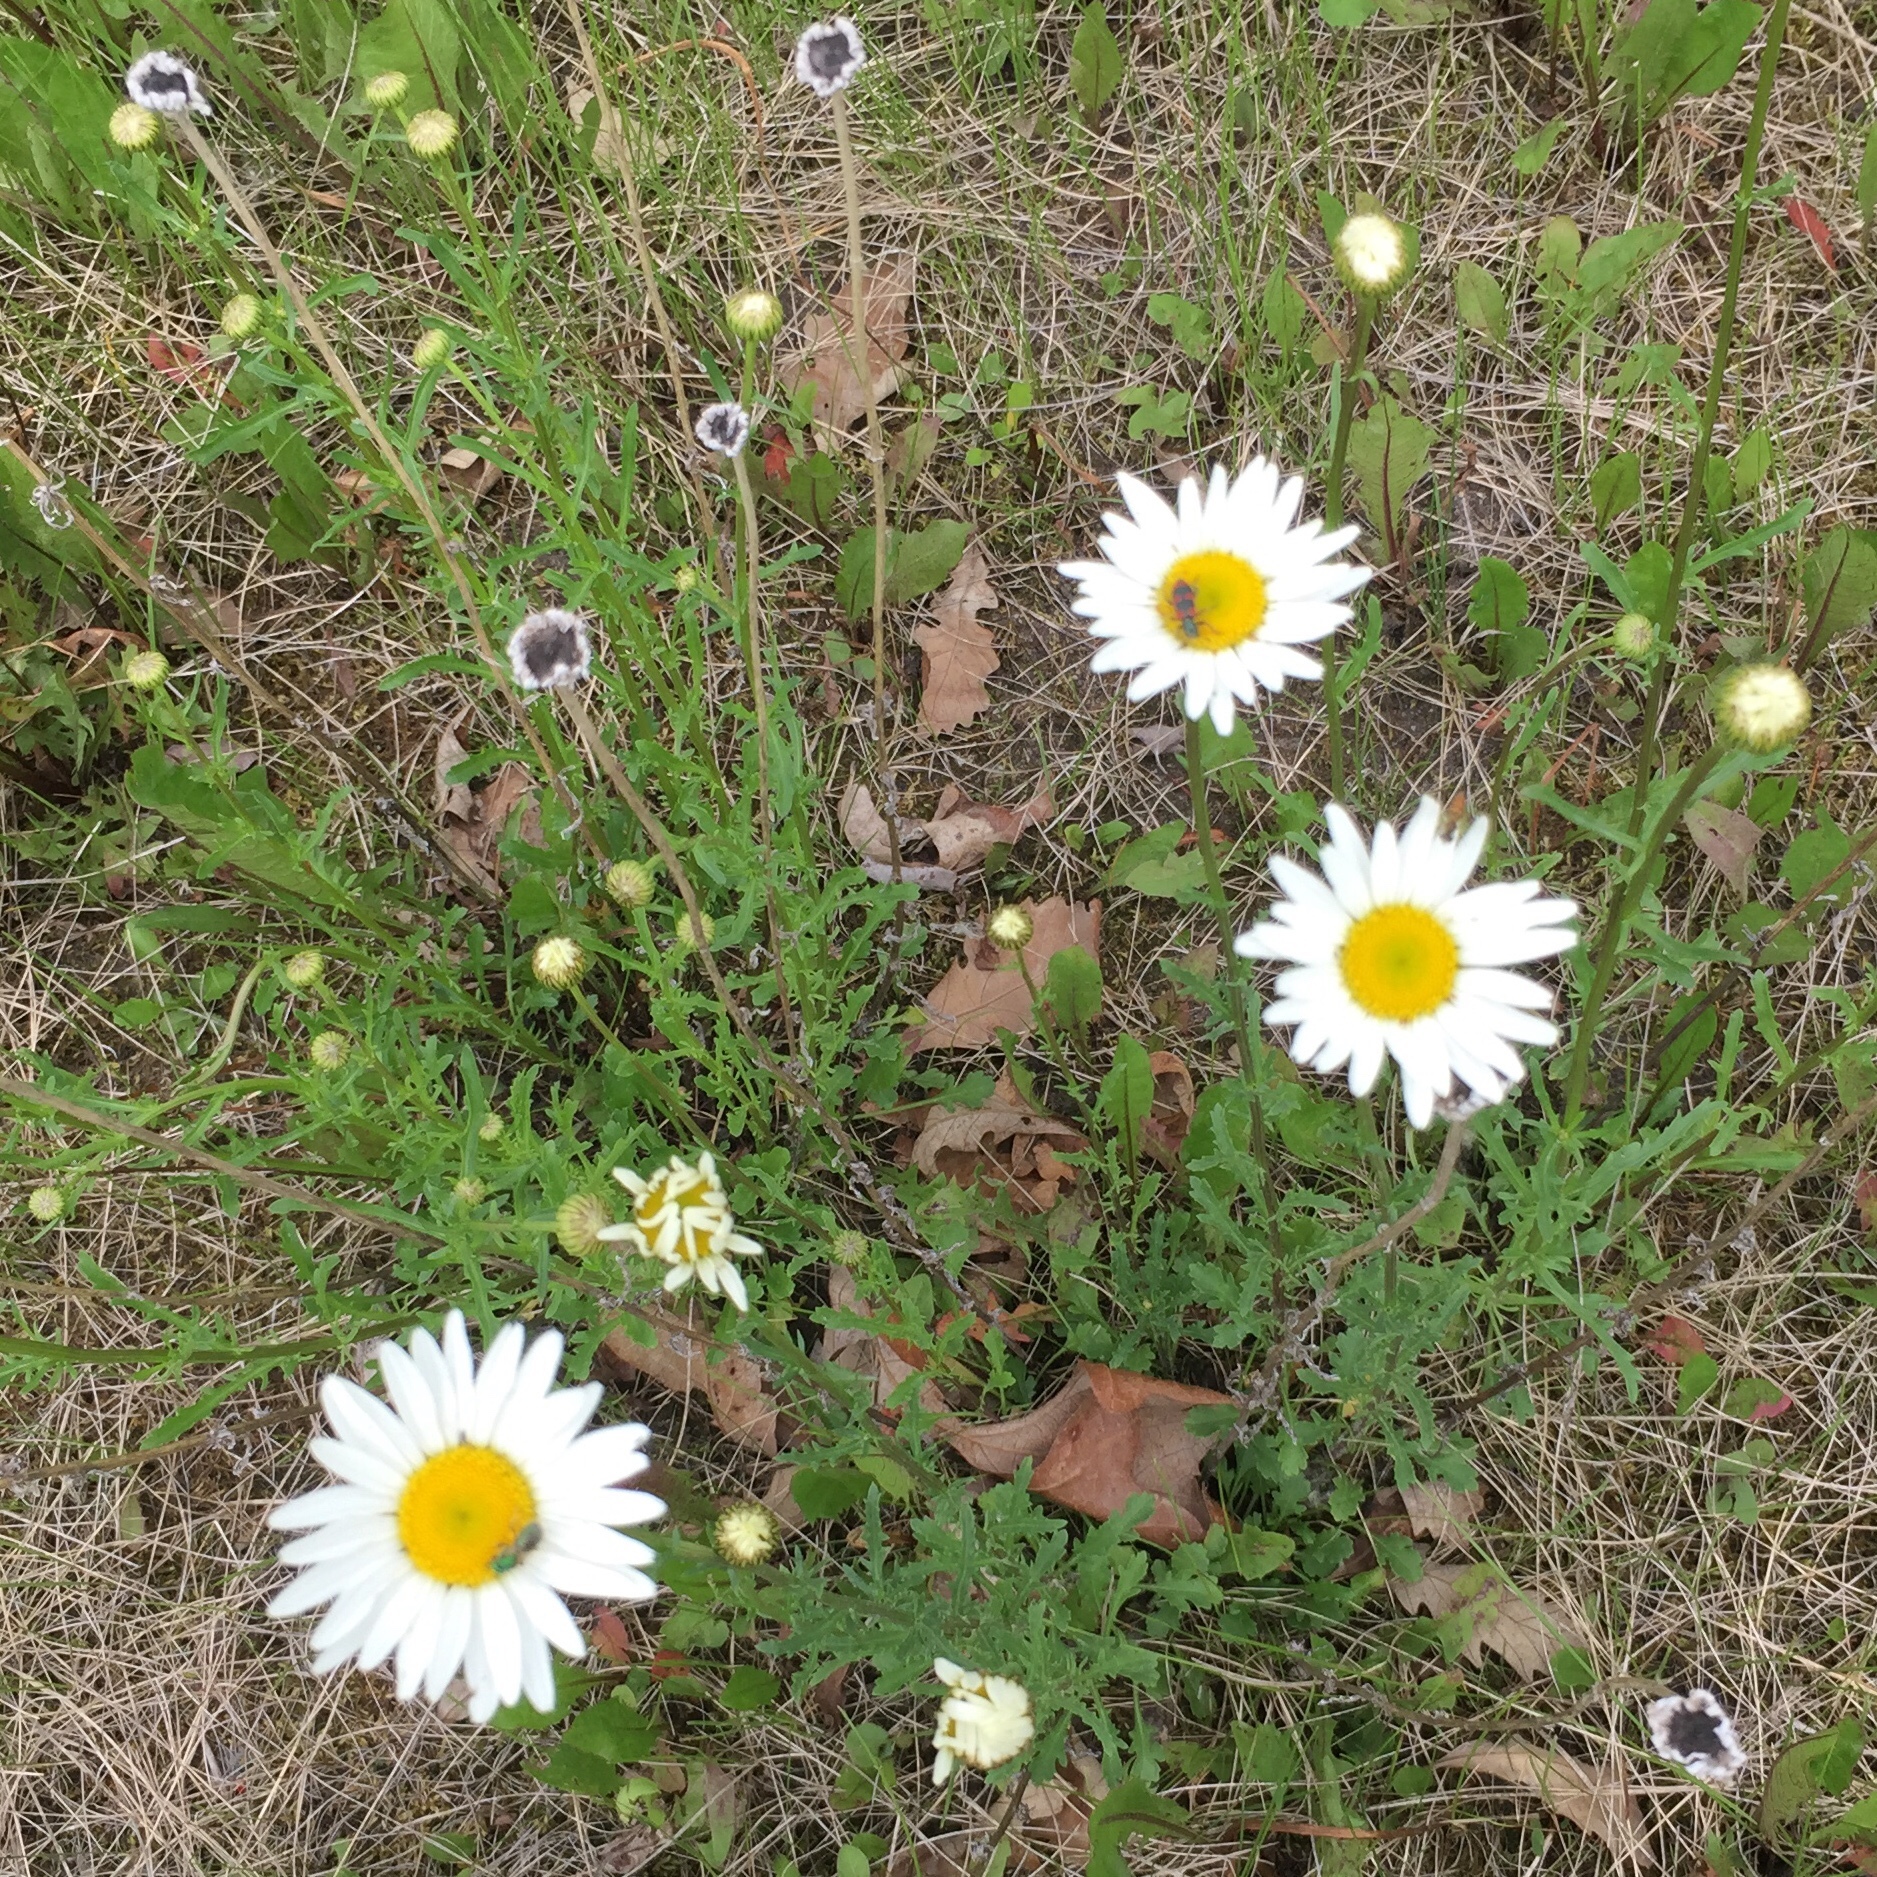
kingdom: Plantae
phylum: Tracheophyta
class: Magnoliopsida
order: Asterales
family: Asteraceae
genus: Leucanthemum
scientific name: Leucanthemum vulgare
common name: Oxeye daisy
